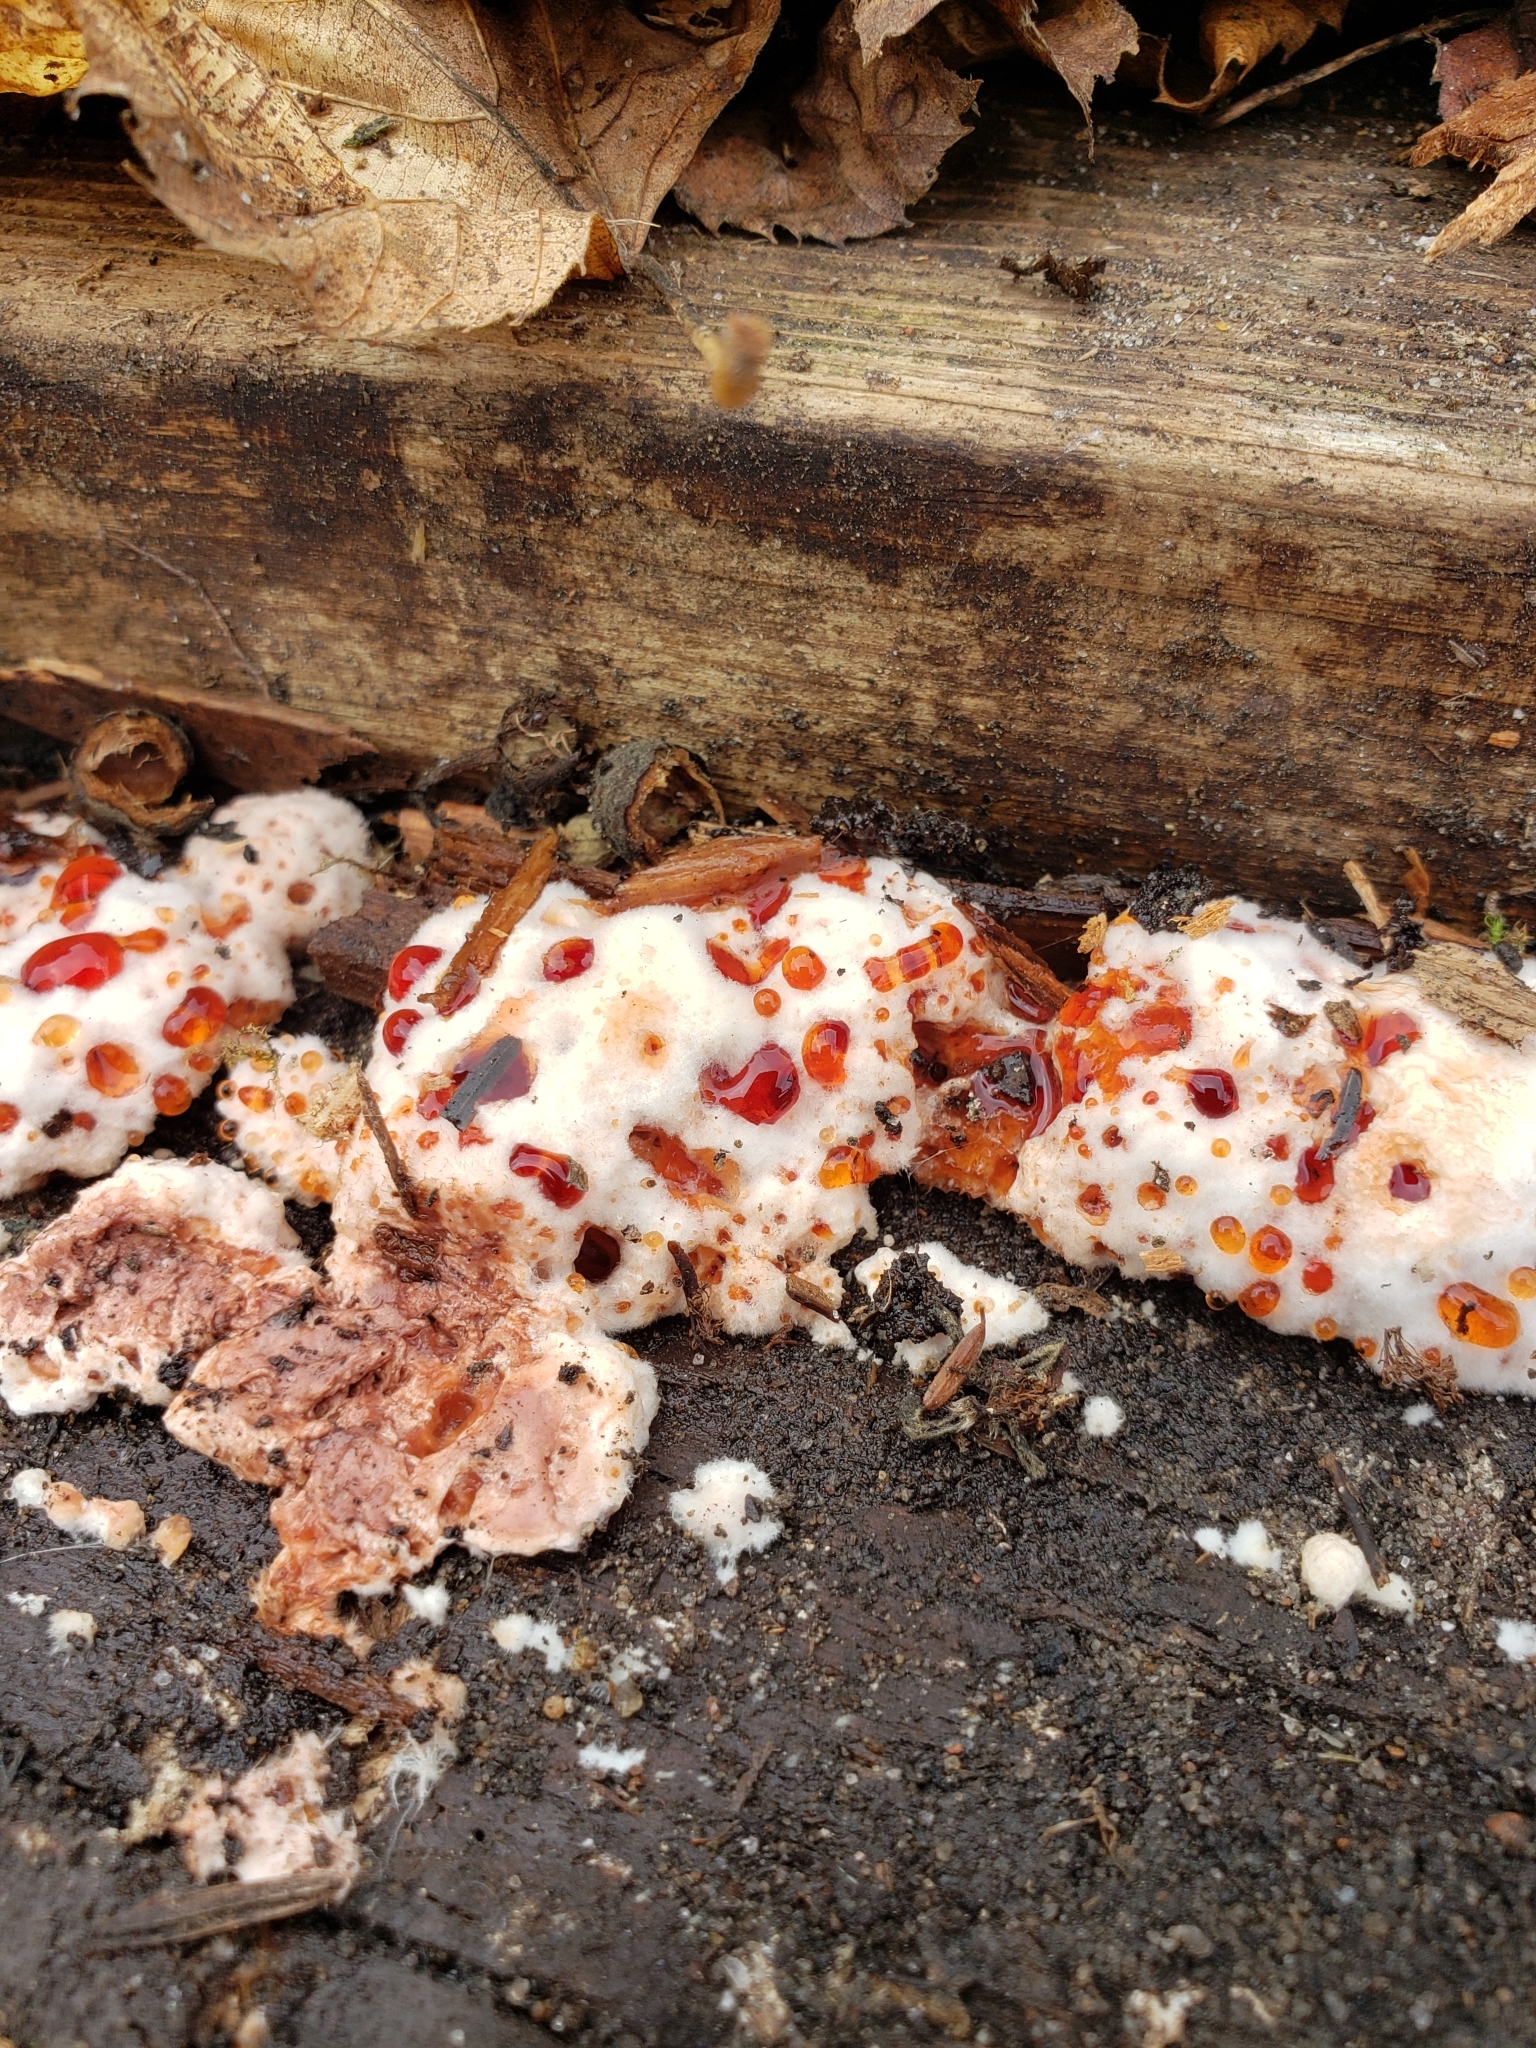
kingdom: Fungi
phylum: Basidiomycota
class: Agaricomycetes
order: Polyporales
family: Podoscyphaceae
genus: Abortiporus
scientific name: Abortiporus biennis
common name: Blushing rosette
